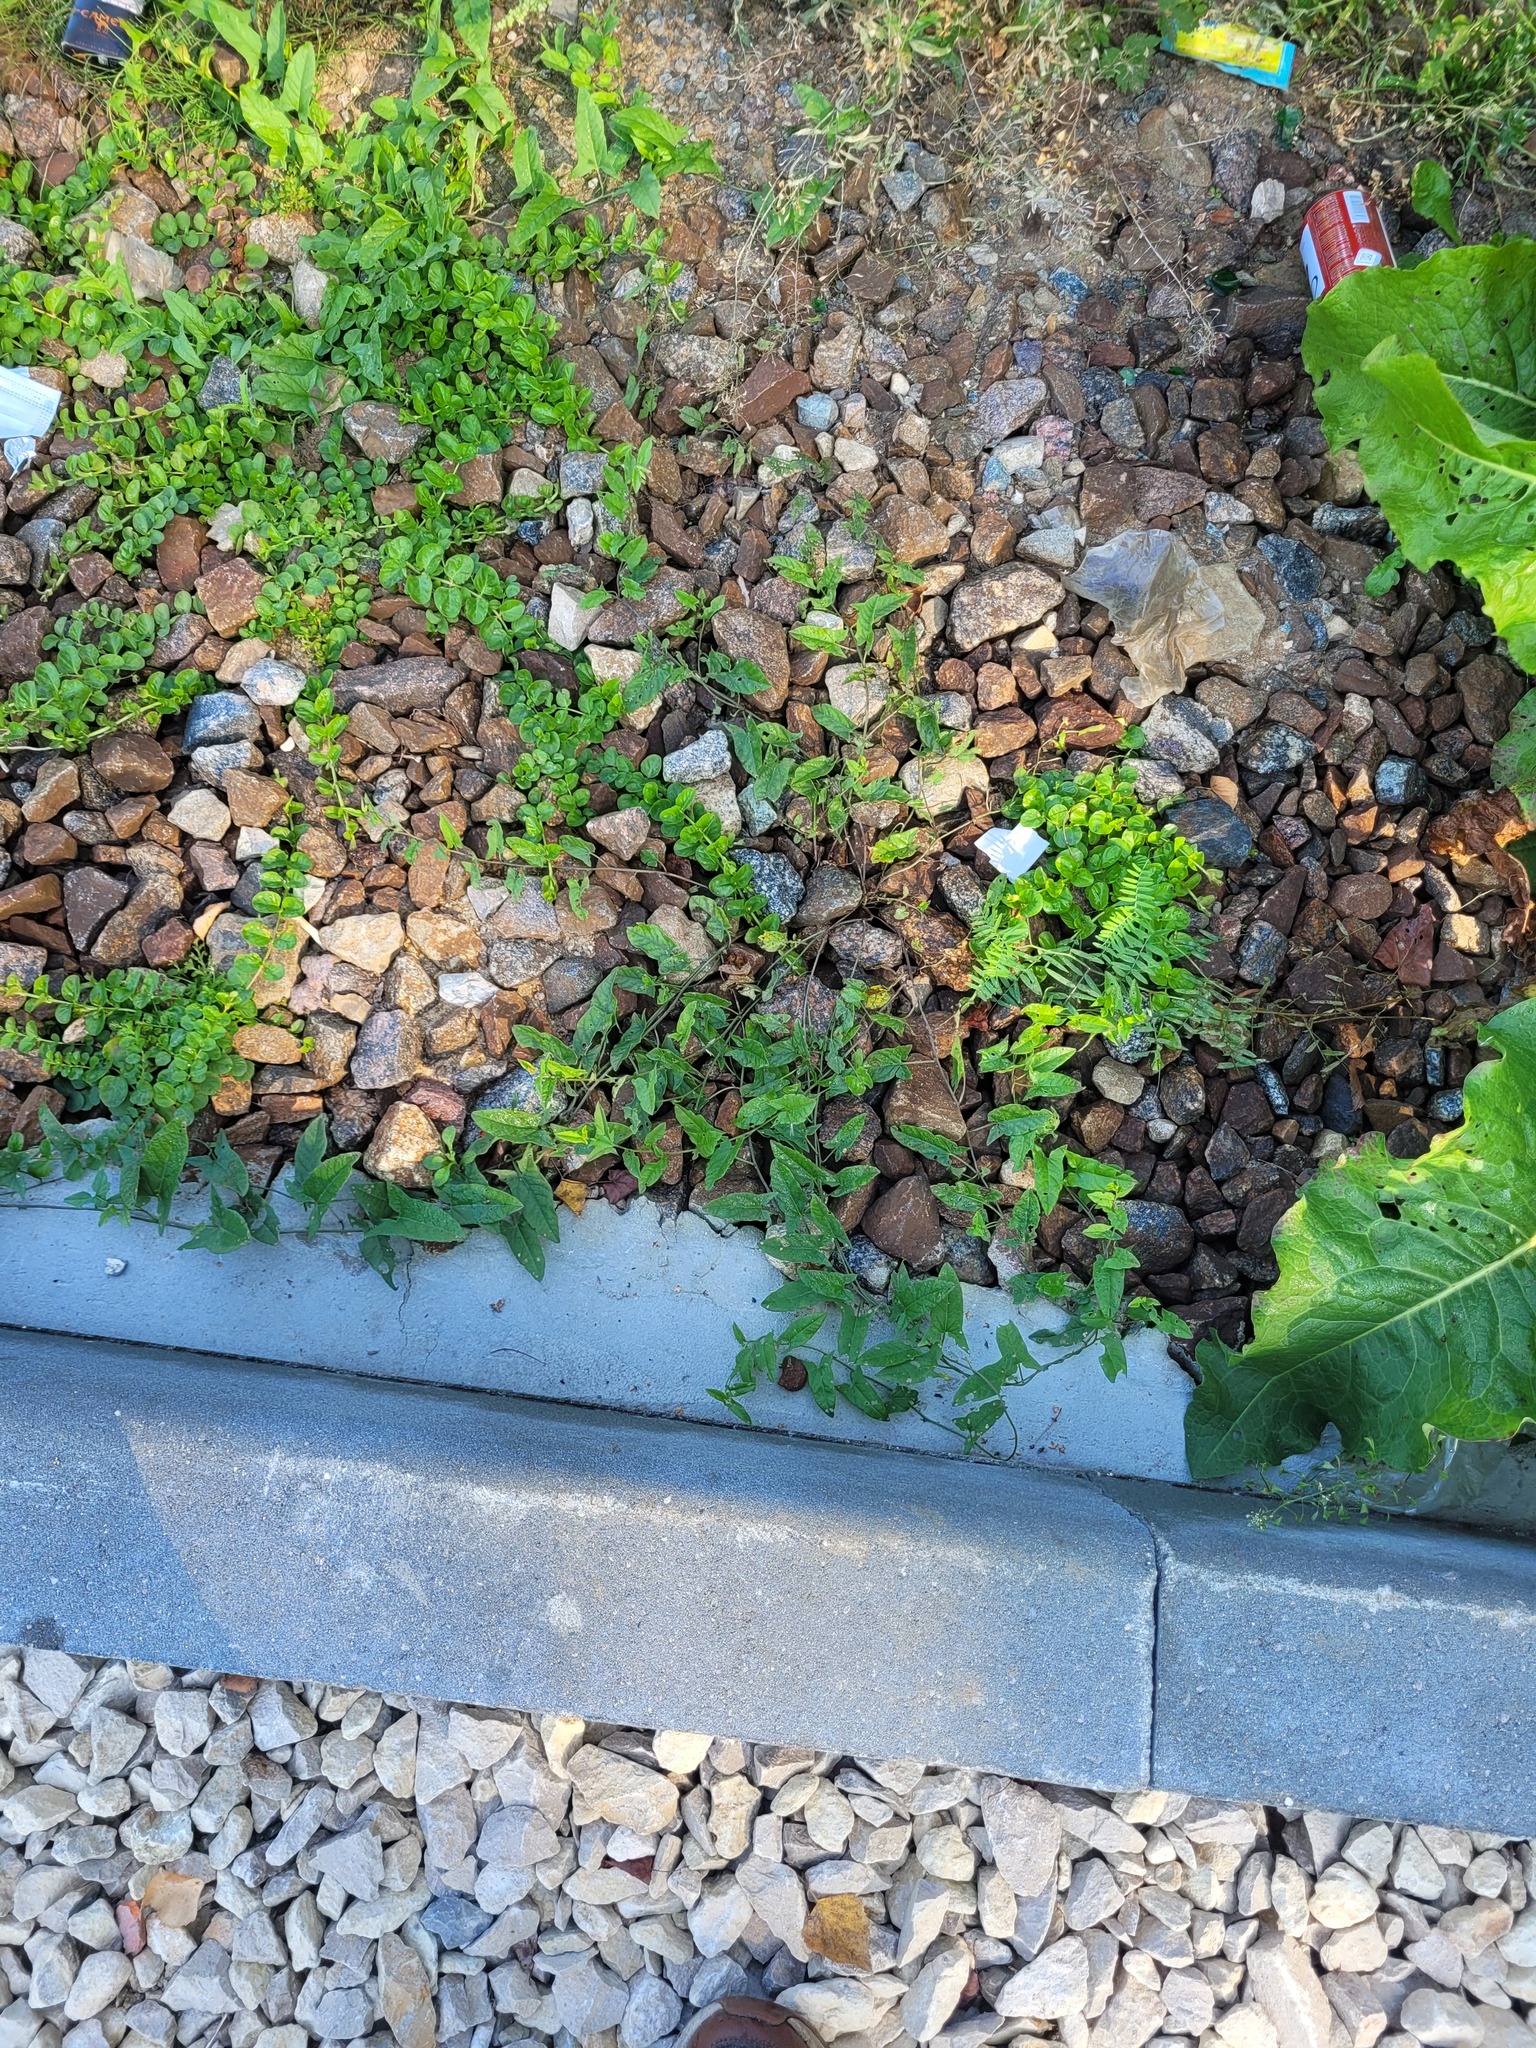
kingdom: Plantae
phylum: Tracheophyta
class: Magnoliopsida
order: Solanales
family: Convolvulaceae
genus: Convolvulus
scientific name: Convolvulus arvensis
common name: Field bindweed
